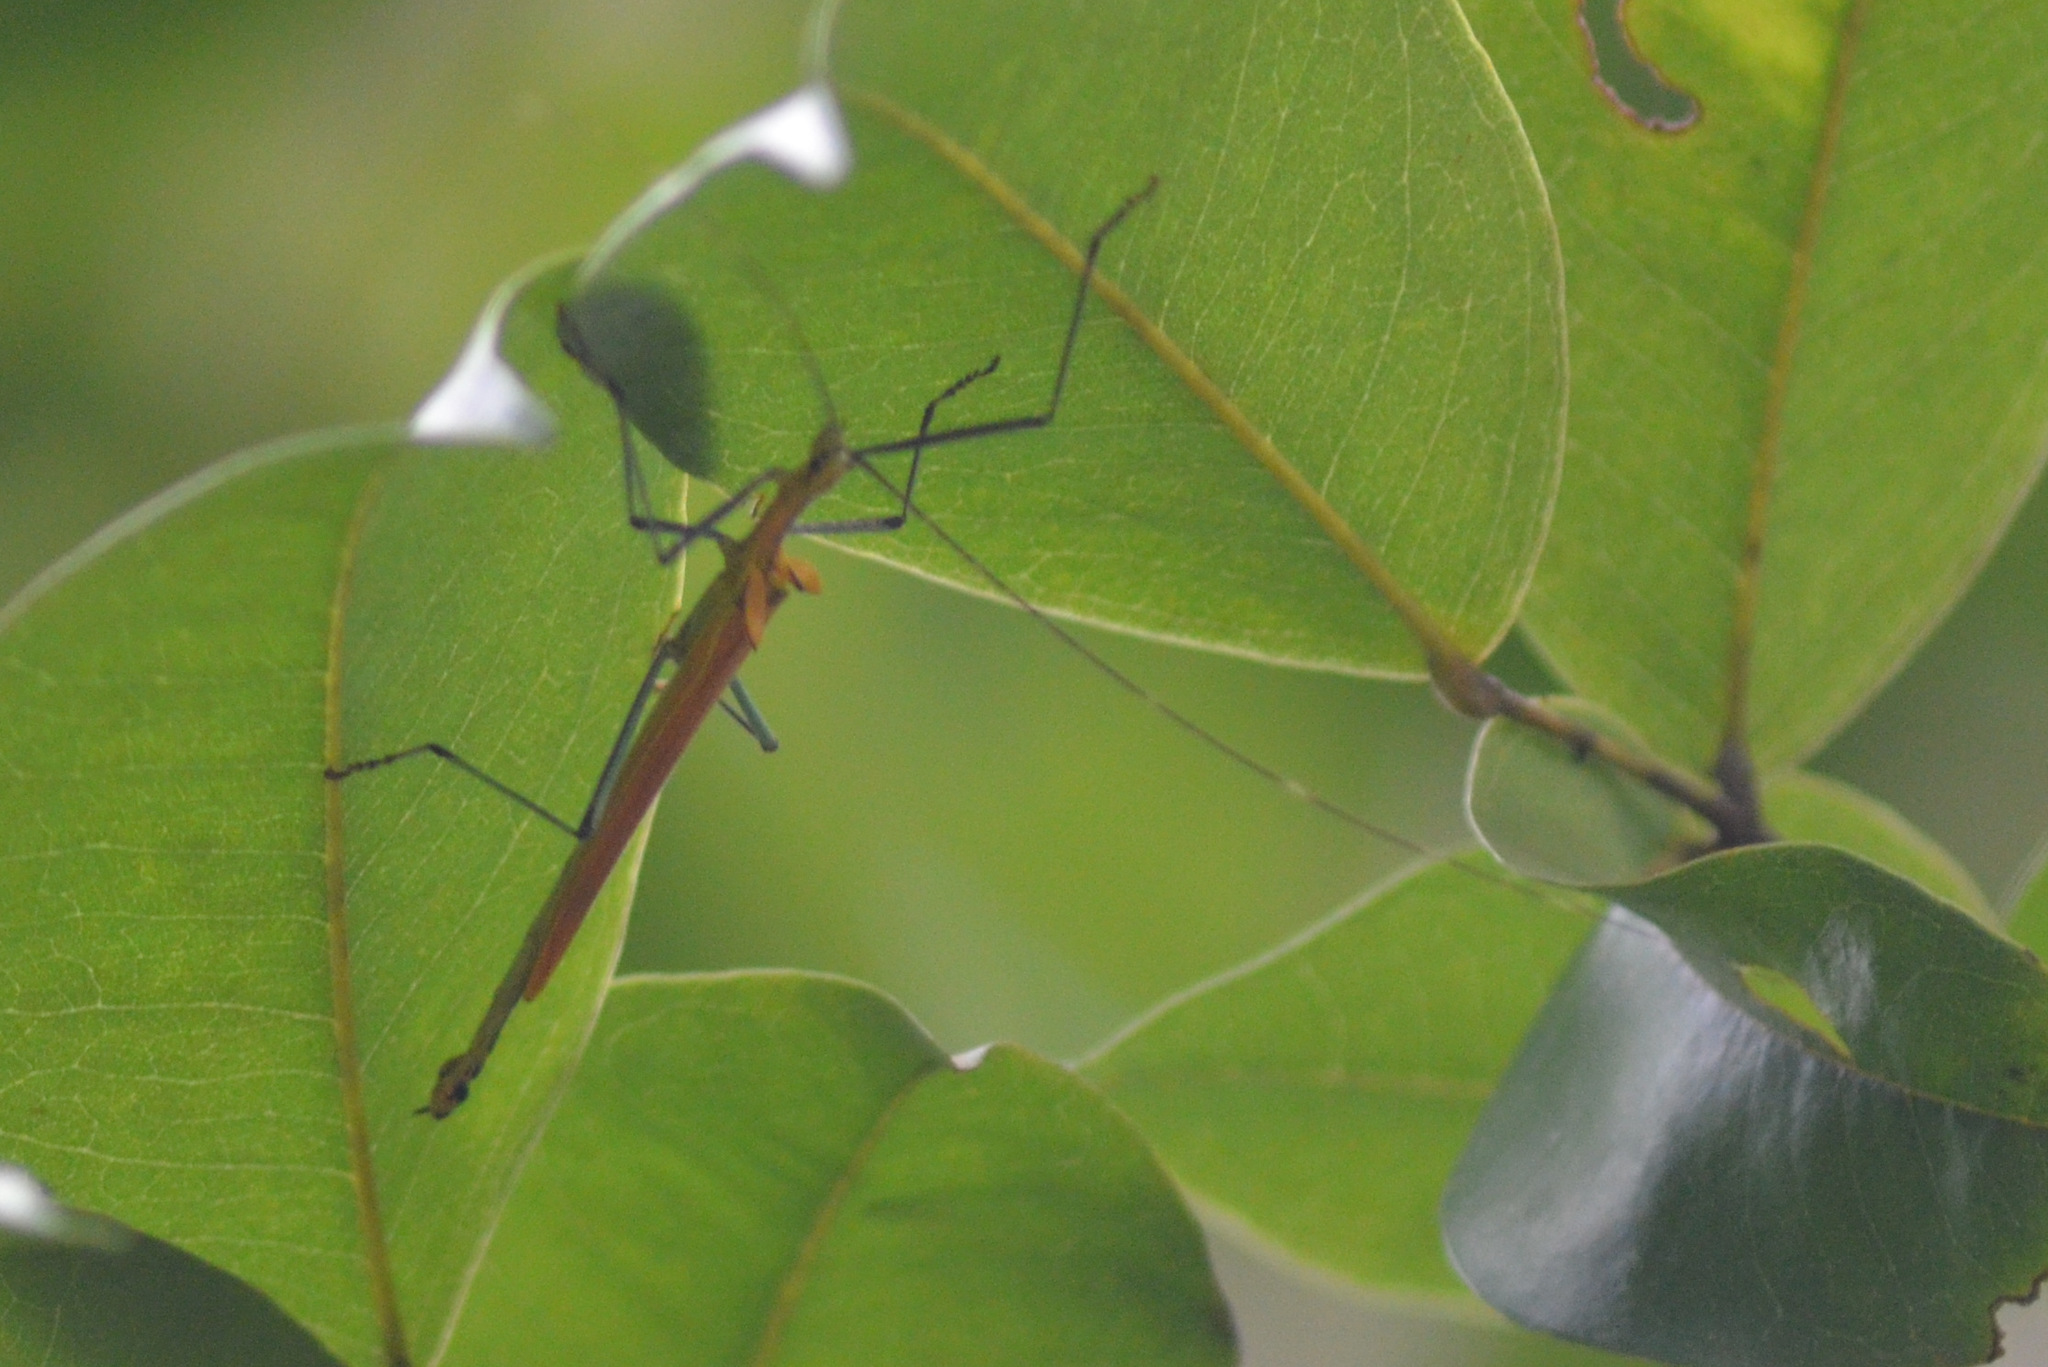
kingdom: Animalia
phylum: Arthropoda
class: Insecta
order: Phasmida
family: Pseudophasmatidae
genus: Tithonophasma
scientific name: Tithonophasma tithonus
